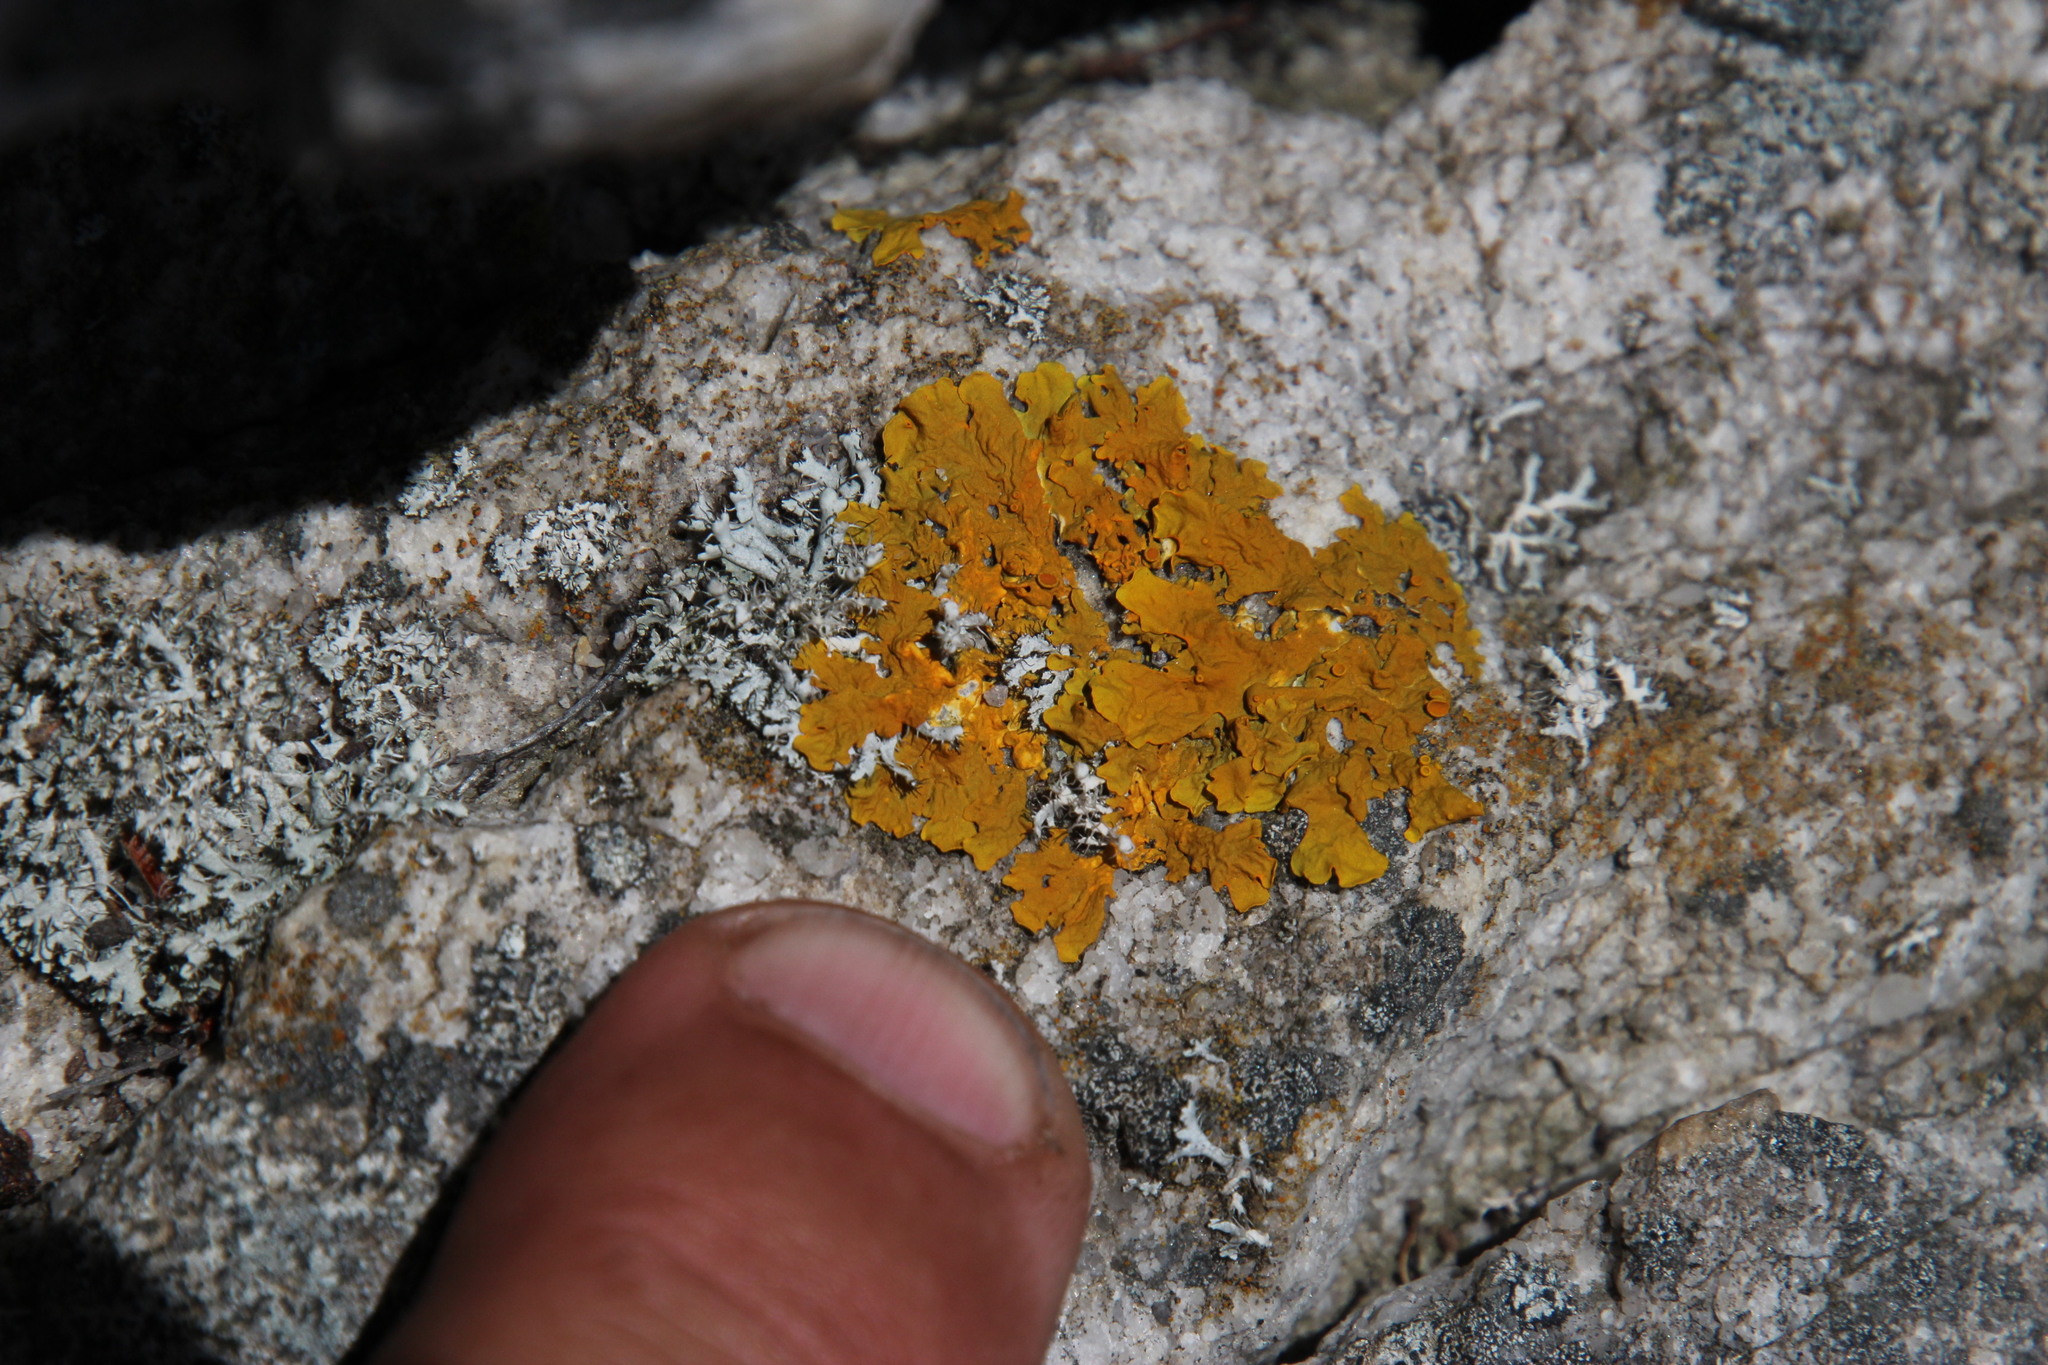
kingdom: Fungi
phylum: Ascomycota
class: Lecanoromycetes
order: Teloschistales
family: Teloschistaceae
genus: Xanthoria
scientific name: Xanthoria parietina
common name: Common orange lichen
